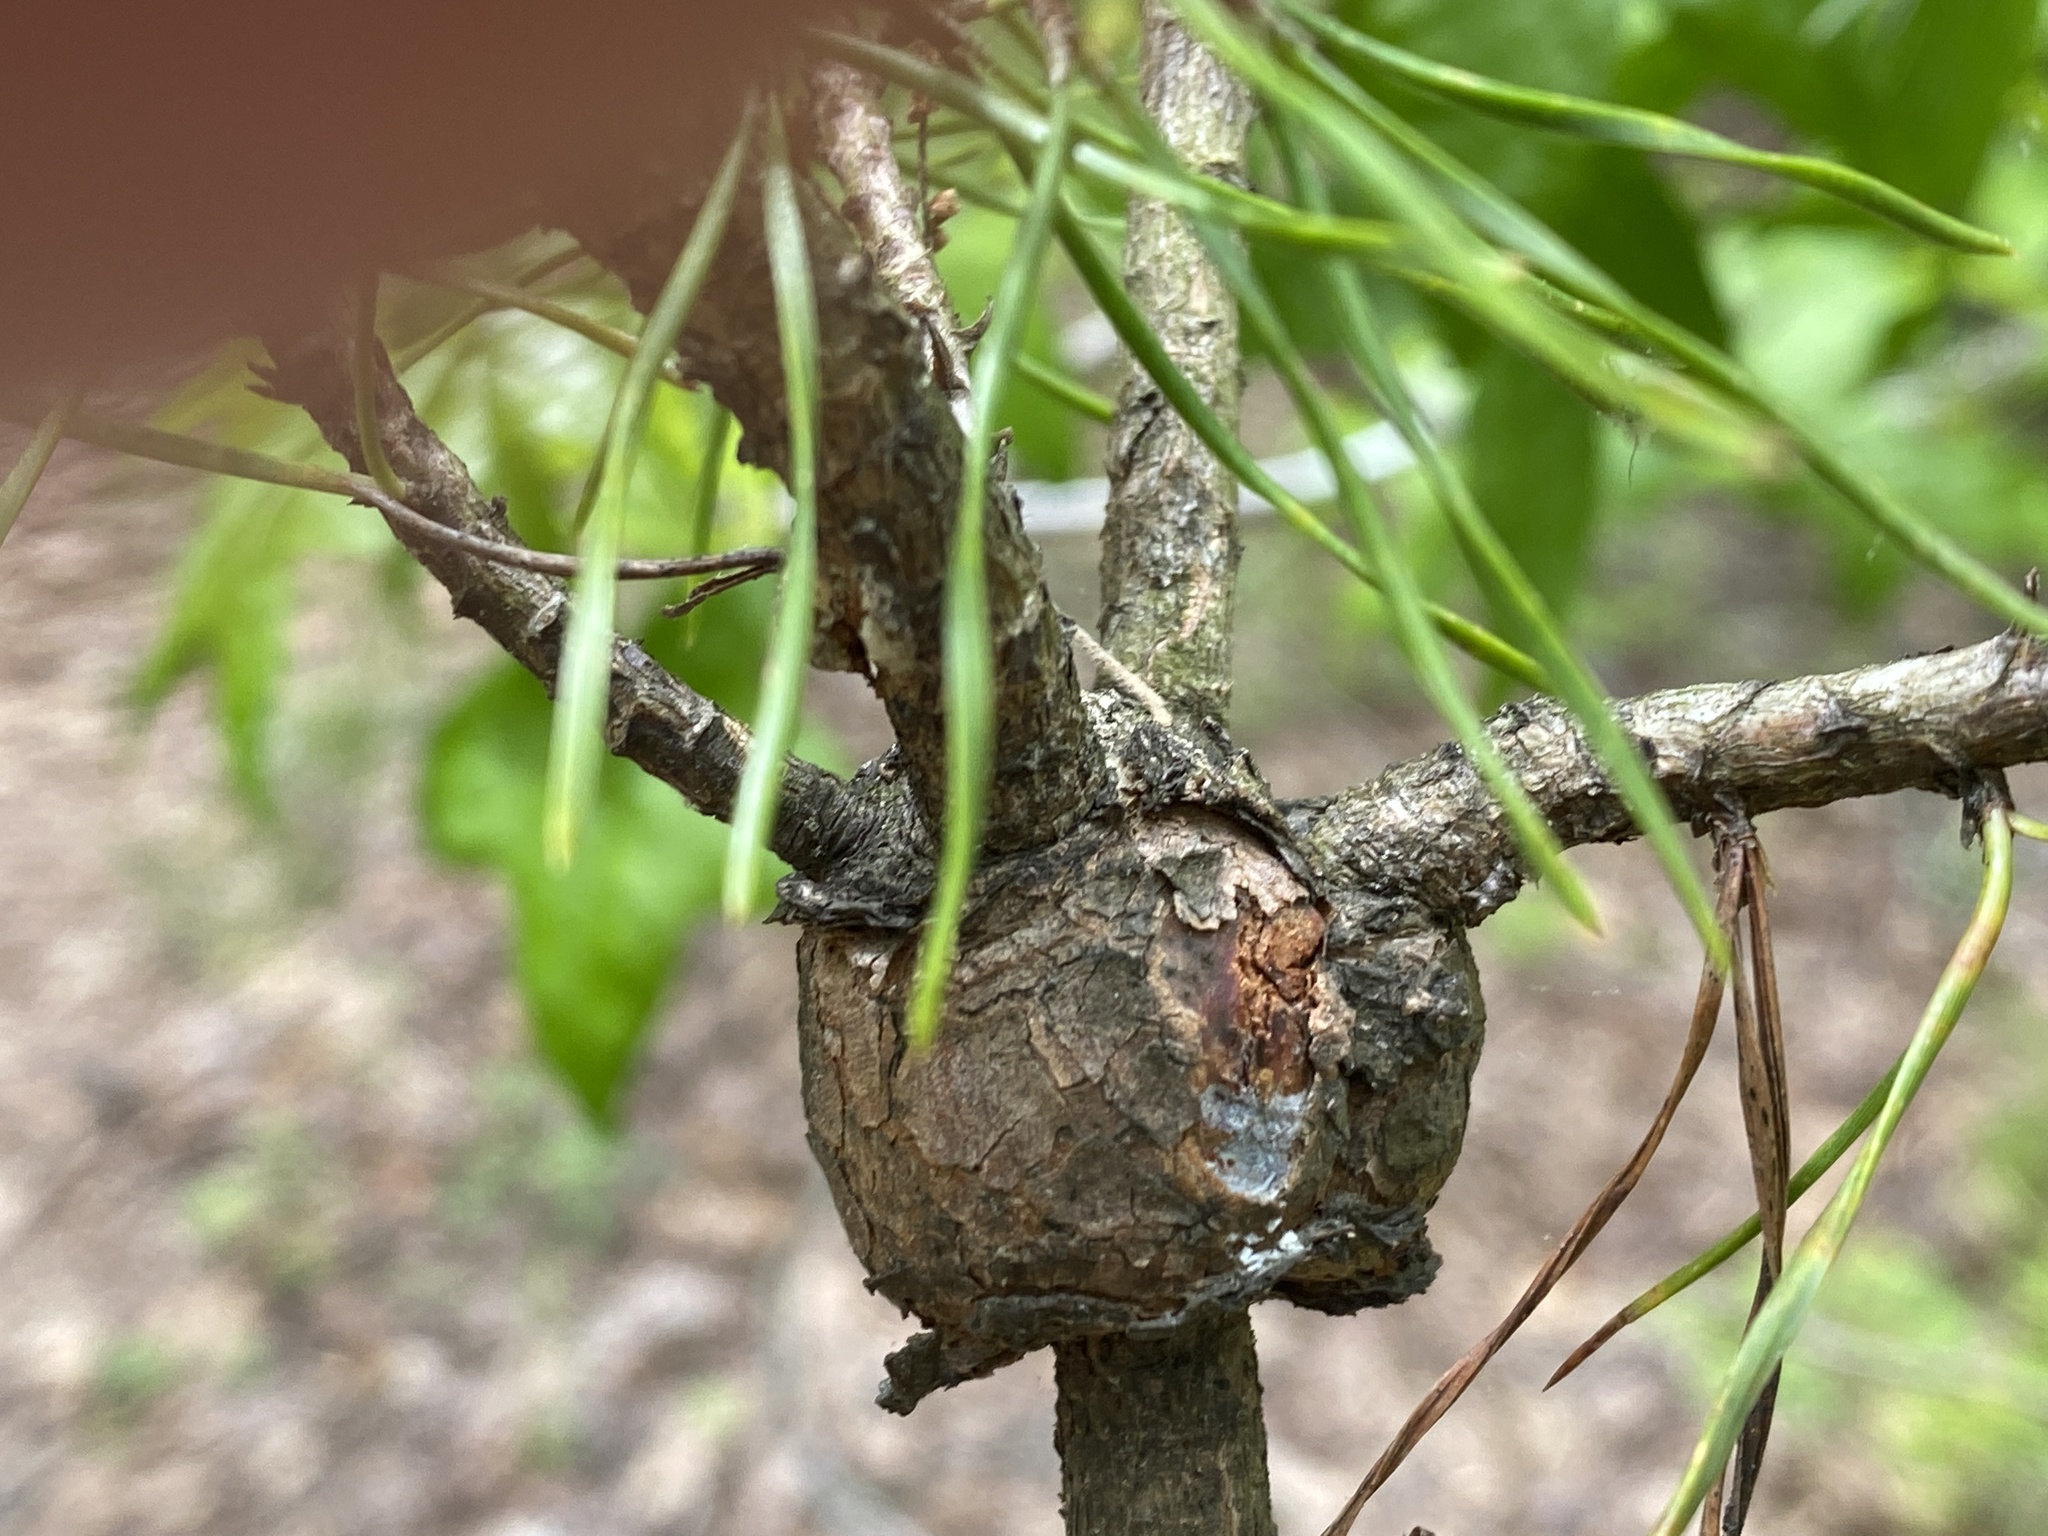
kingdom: Fungi
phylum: Basidiomycota
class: Pucciniomycetes
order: Pucciniales
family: Cronartiaceae
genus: Cronartium
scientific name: Cronartium quercuum
